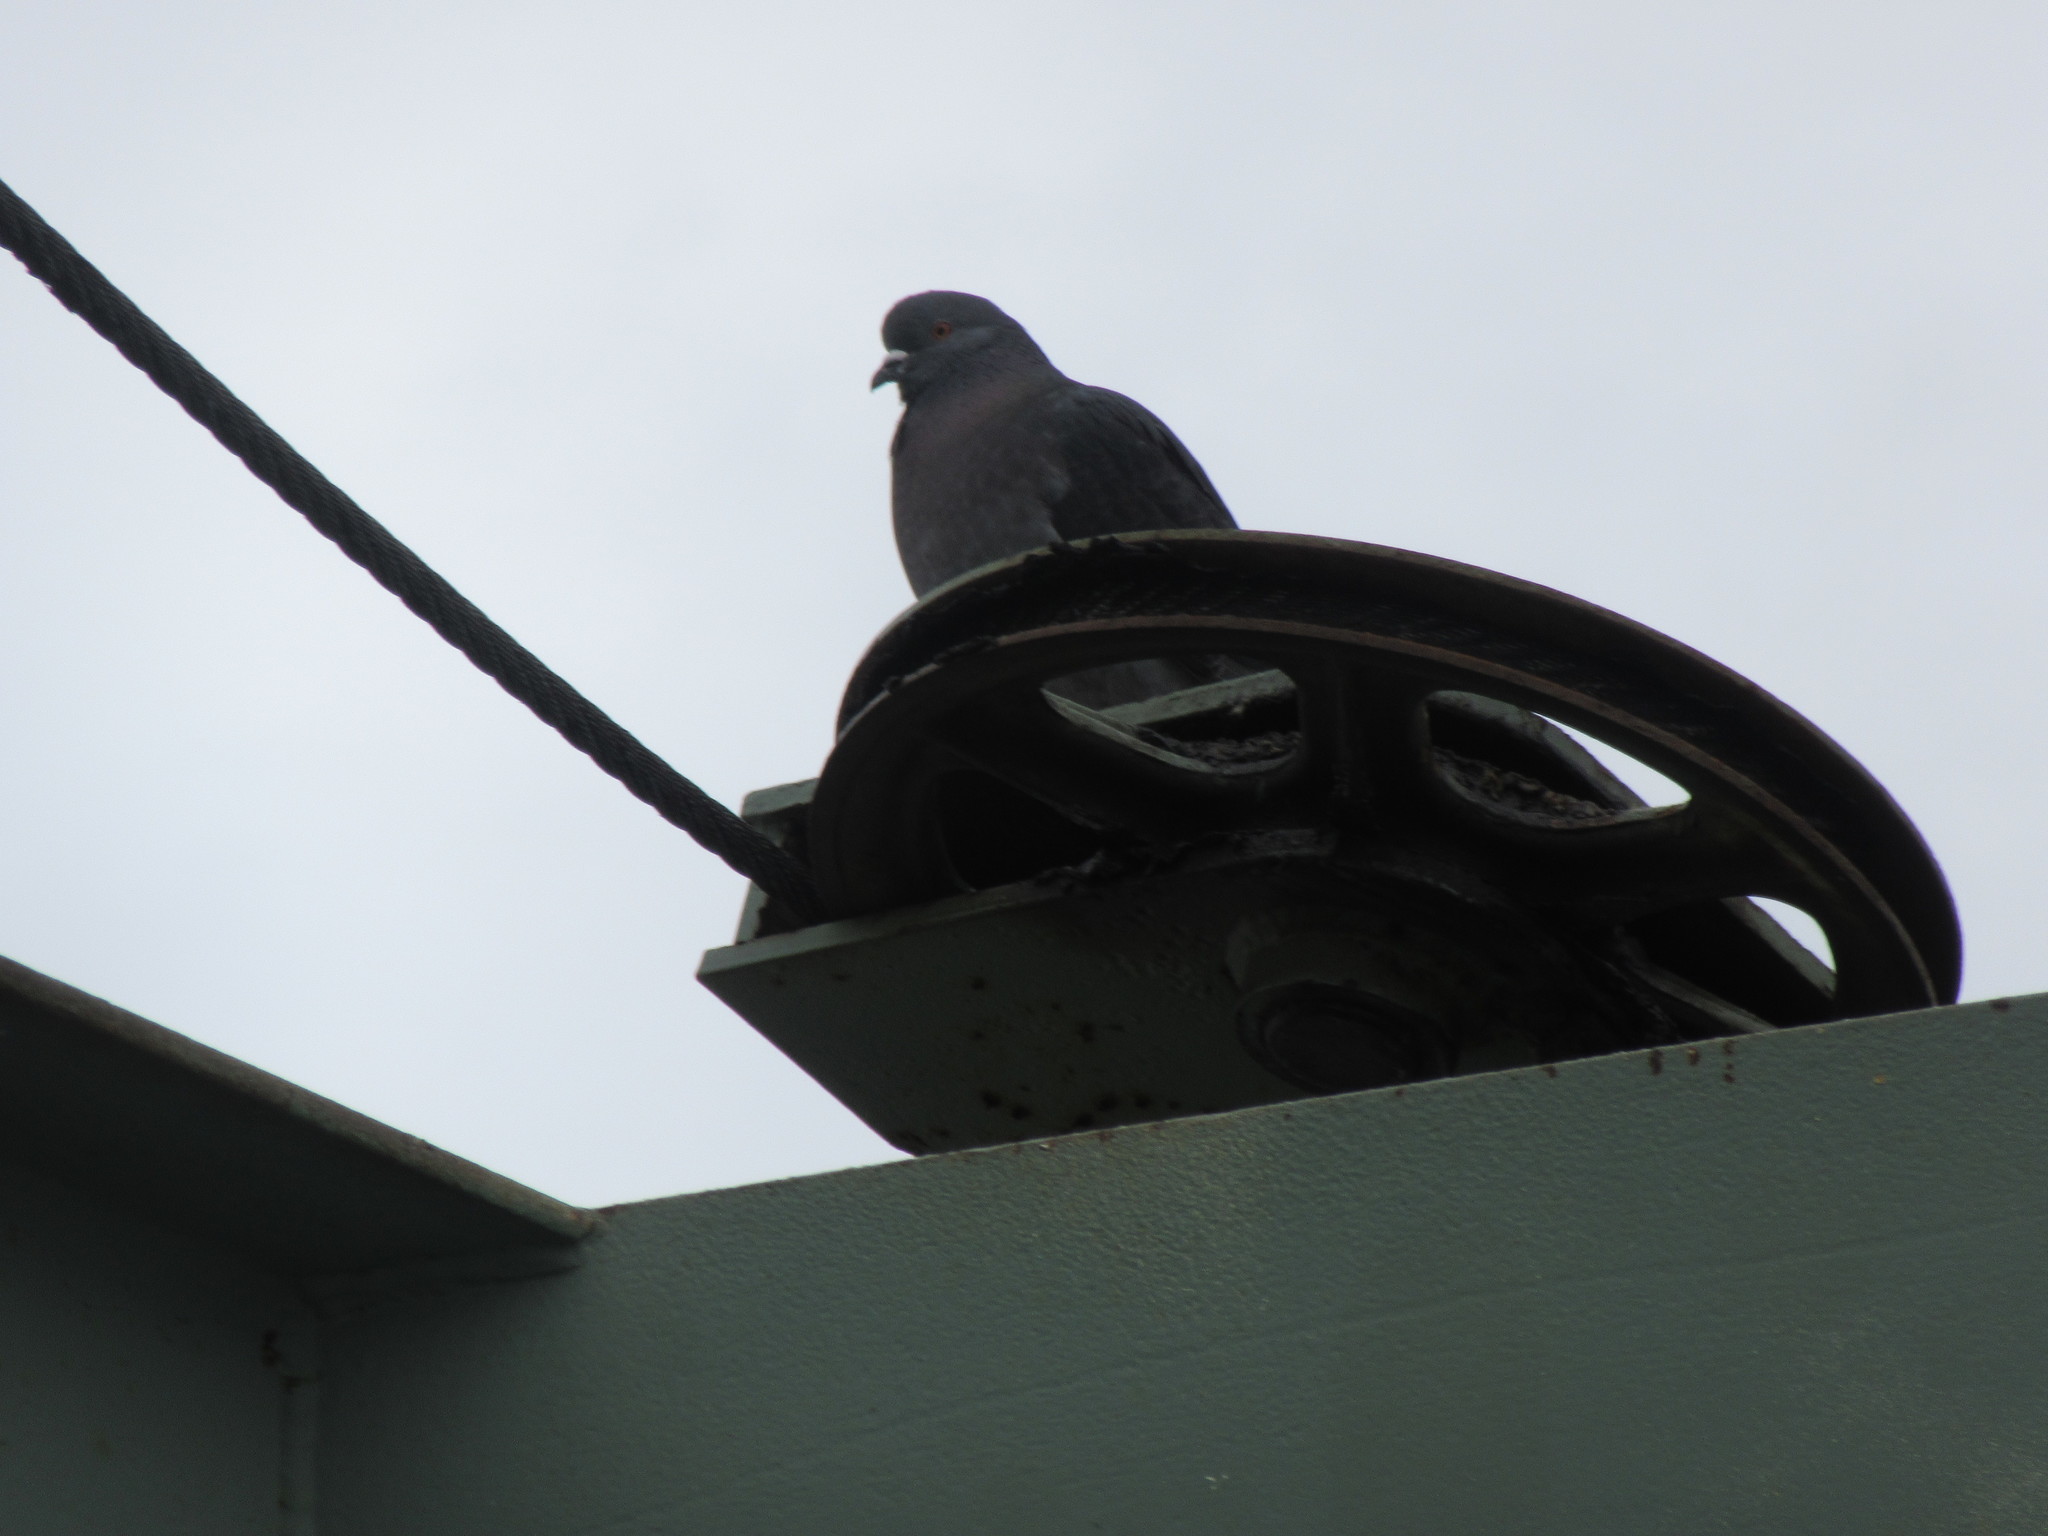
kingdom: Animalia
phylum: Chordata
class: Aves
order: Columbiformes
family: Columbidae
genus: Columba
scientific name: Columba livia
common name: Rock pigeon
